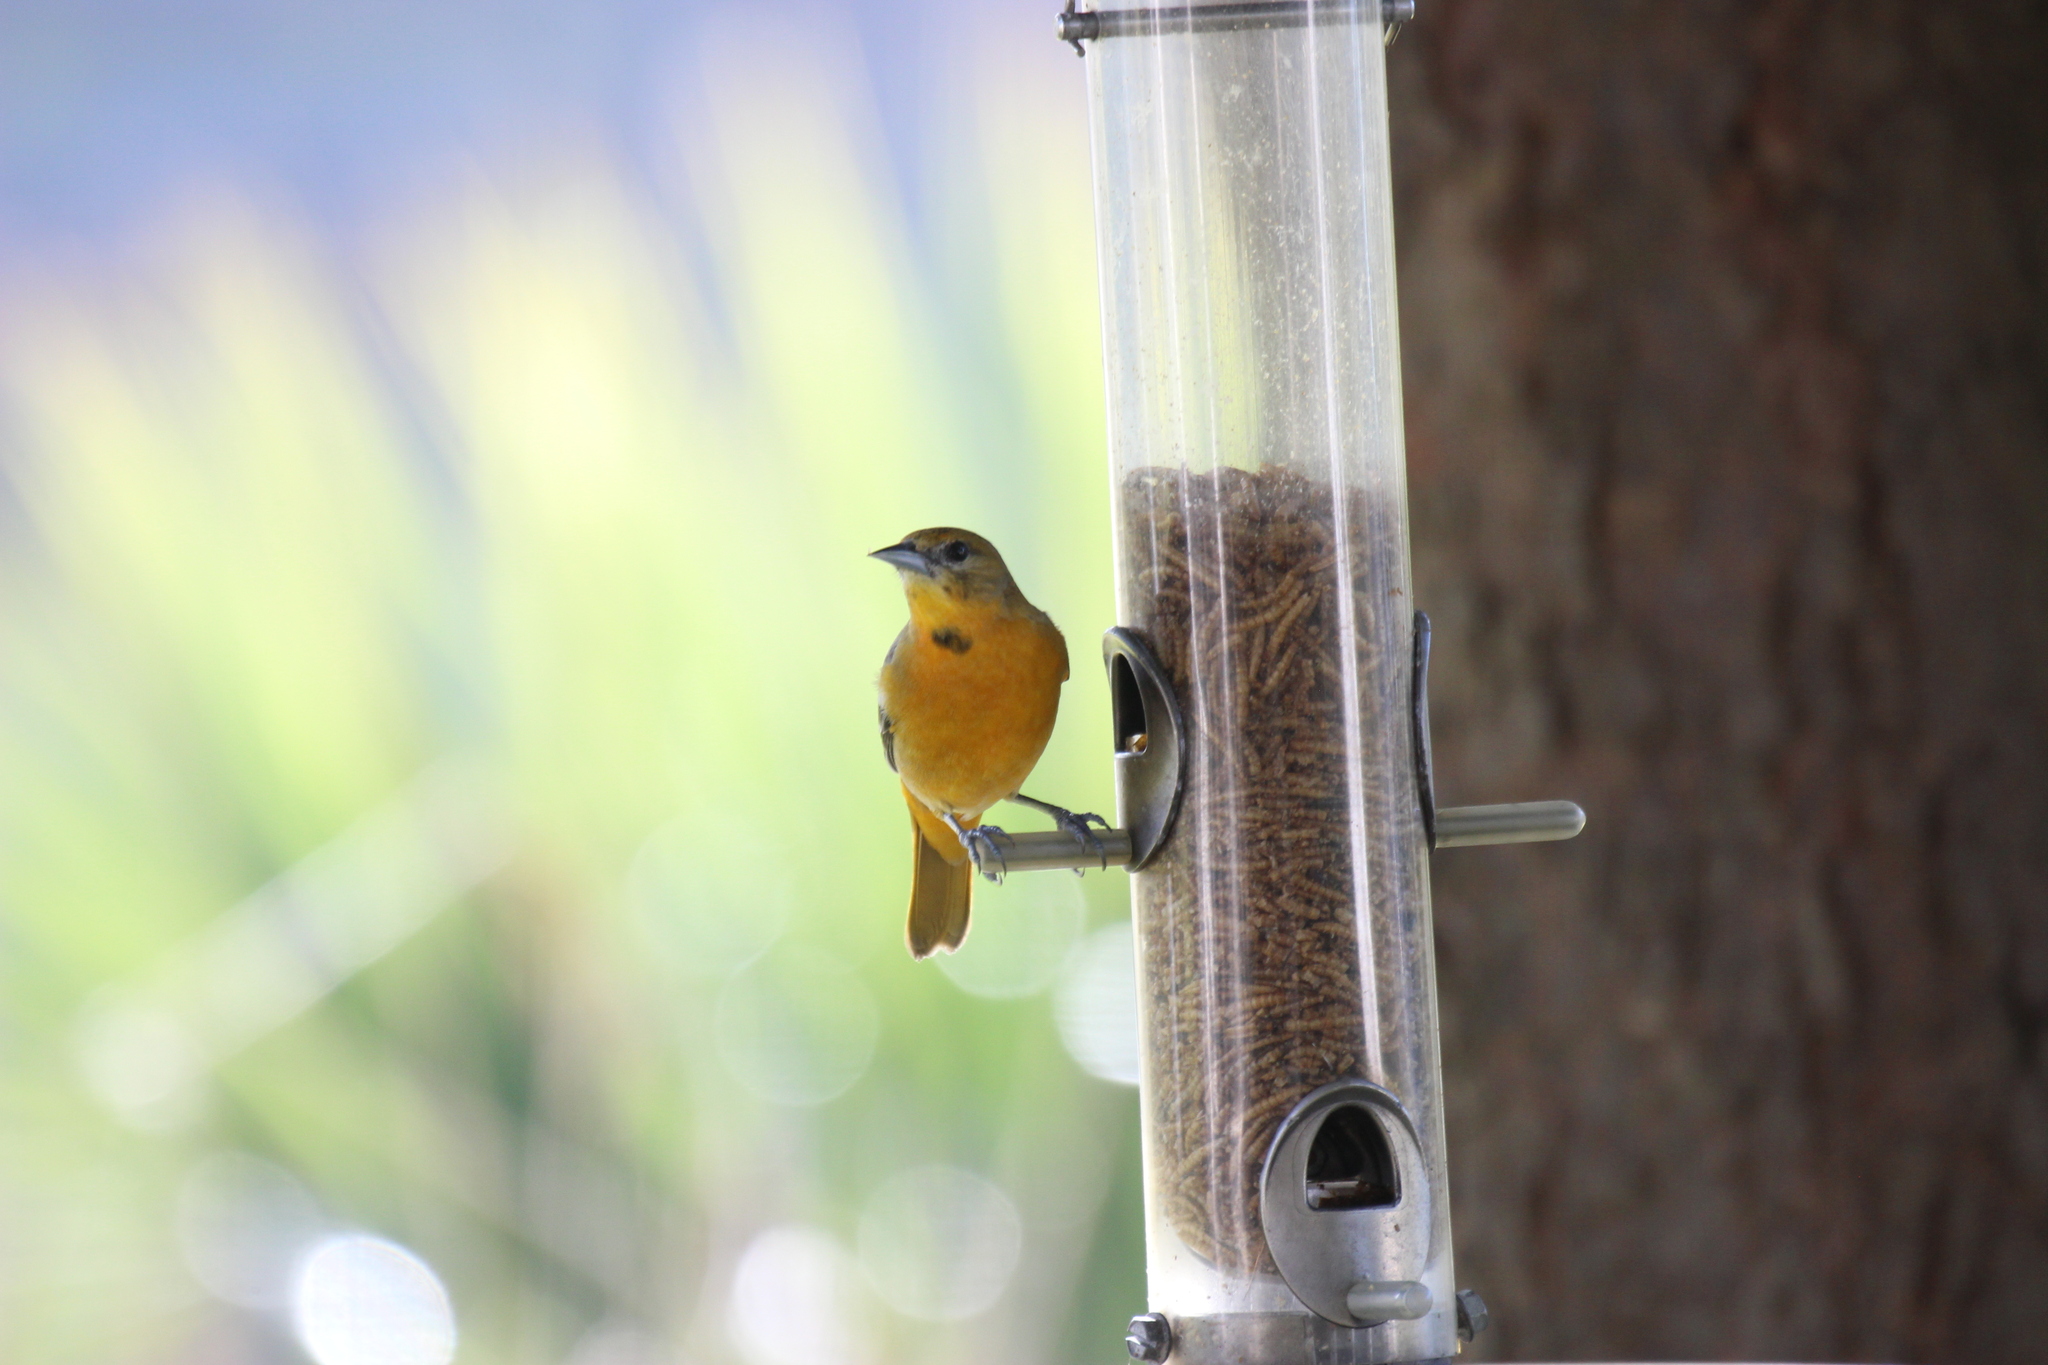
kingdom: Animalia
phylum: Chordata
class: Aves
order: Passeriformes
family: Icteridae
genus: Icterus
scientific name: Icterus galbula
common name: Baltimore oriole
